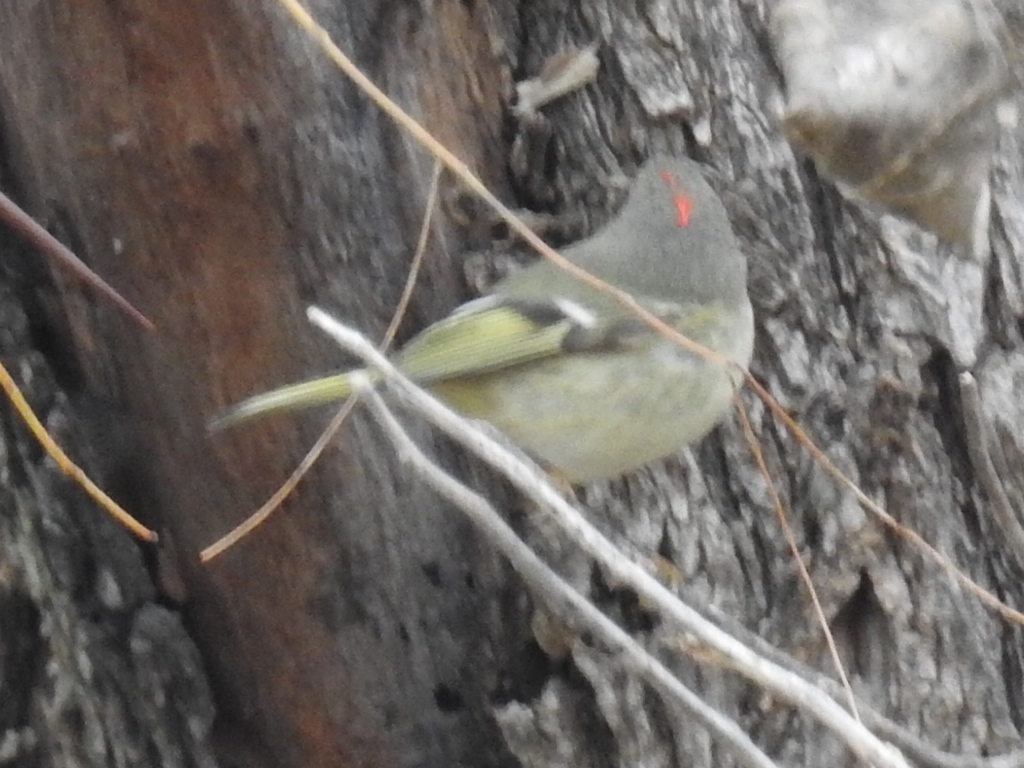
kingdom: Animalia
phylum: Chordata
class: Aves
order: Passeriformes
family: Regulidae
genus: Regulus
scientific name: Regulus calendula
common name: Ruby-crowned kinglet
